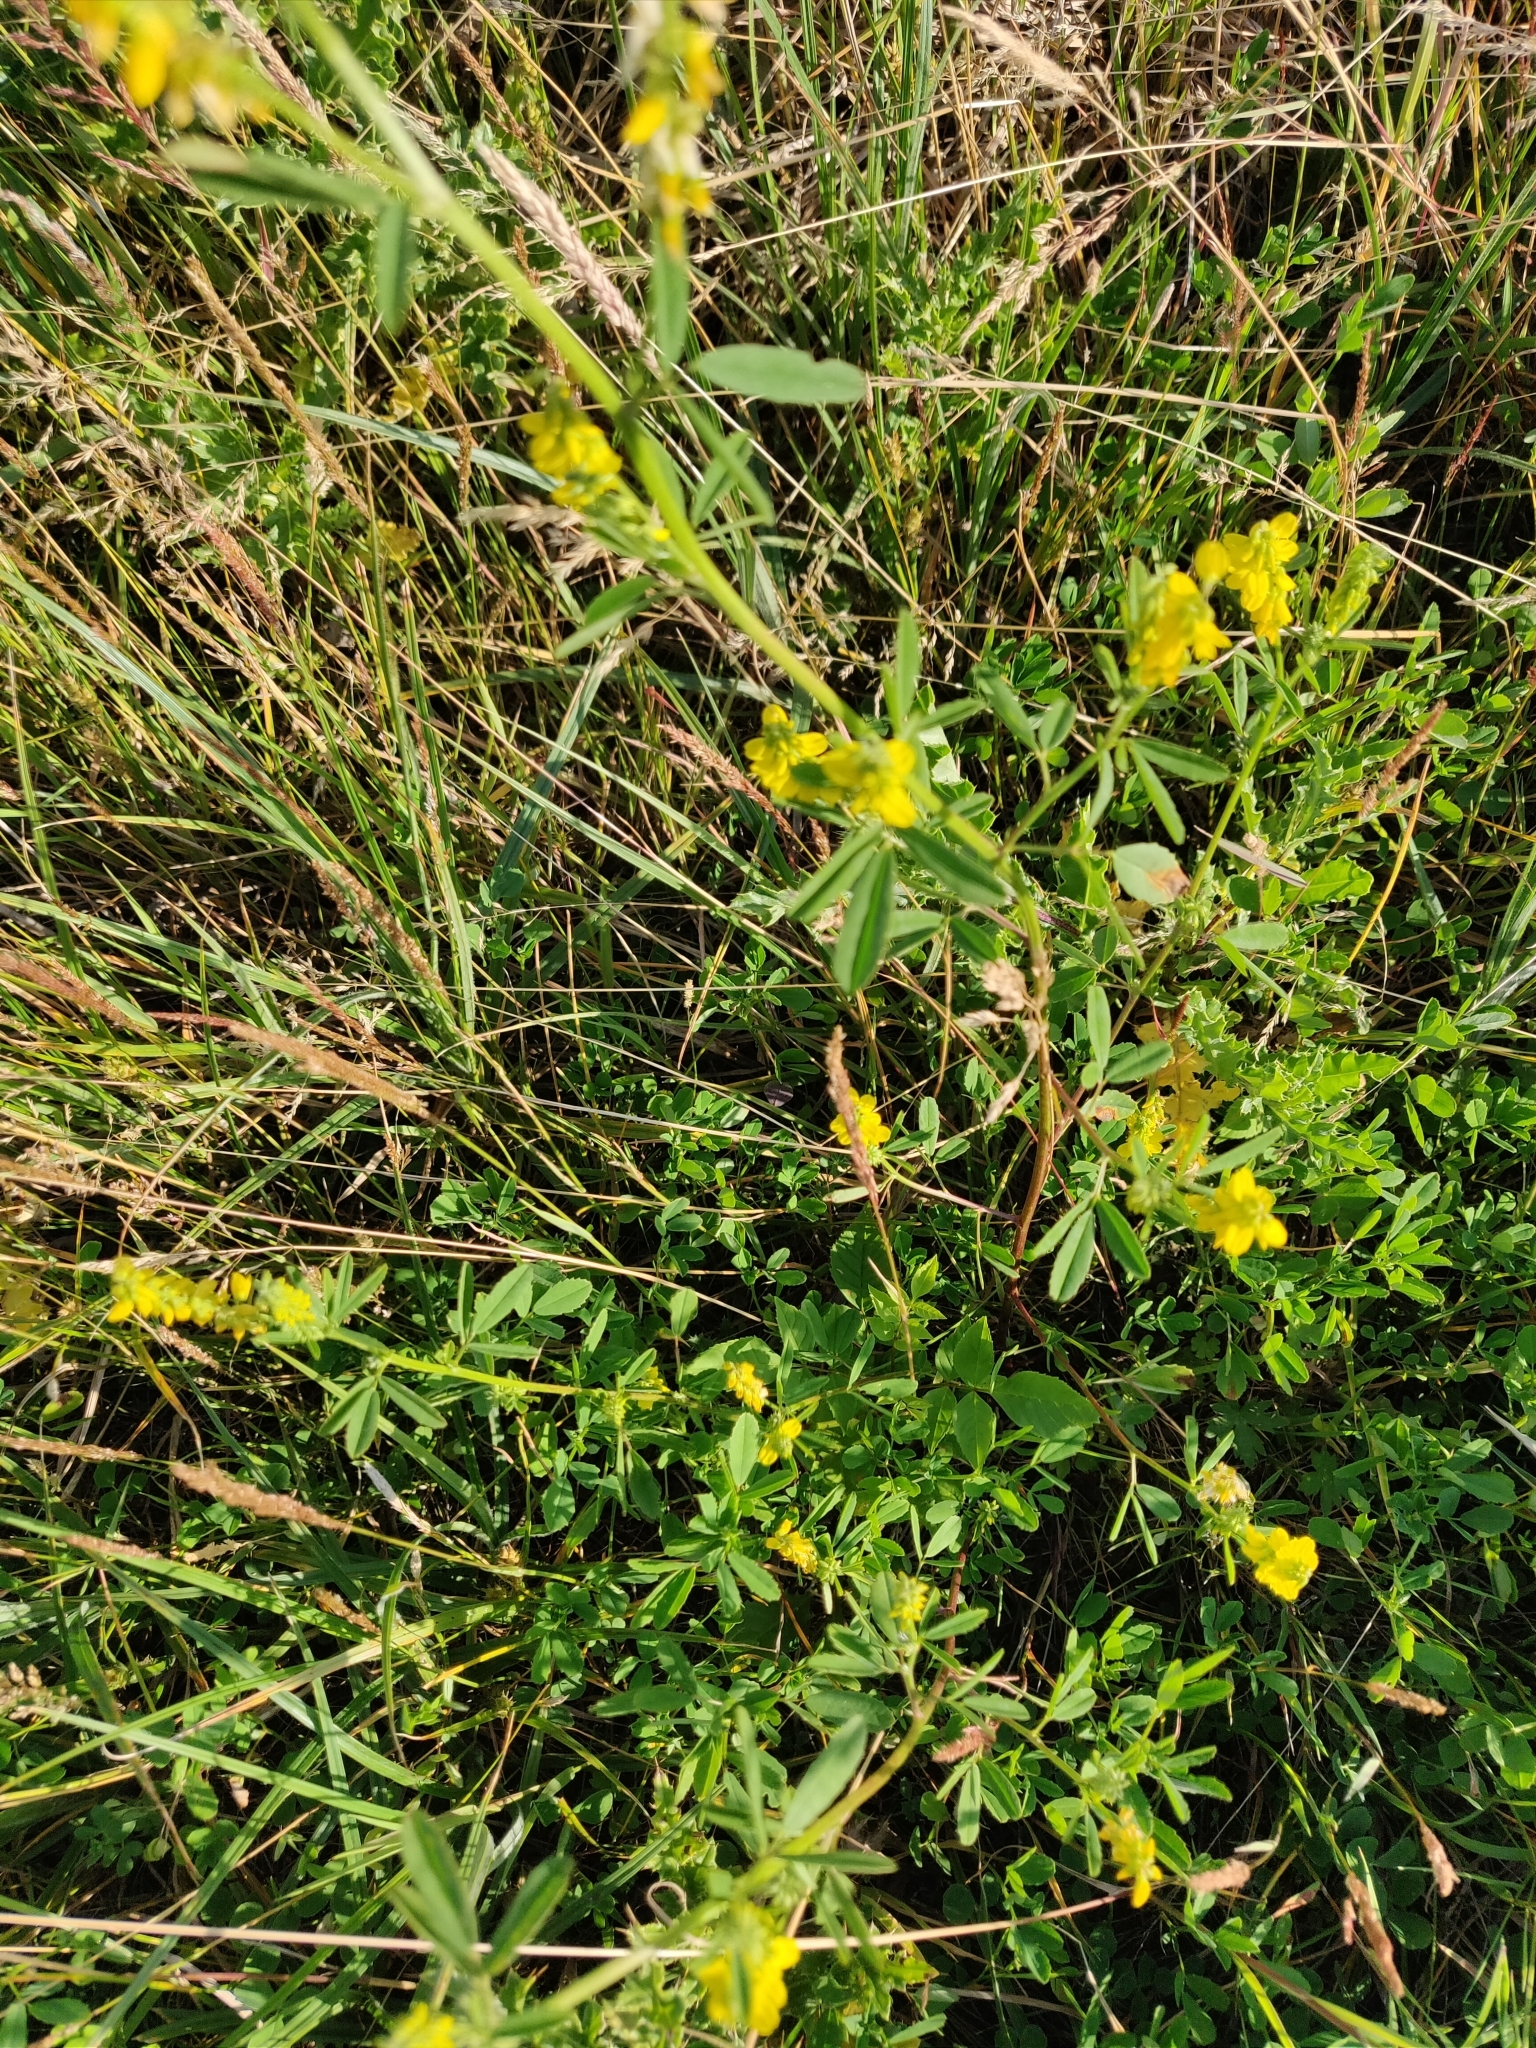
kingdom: Plantae
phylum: Tracheophyta
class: Magnoliopsida
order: Fabales
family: Fabaceae
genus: Melilotus
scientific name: Melilotus officinalis
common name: Sweetclover
